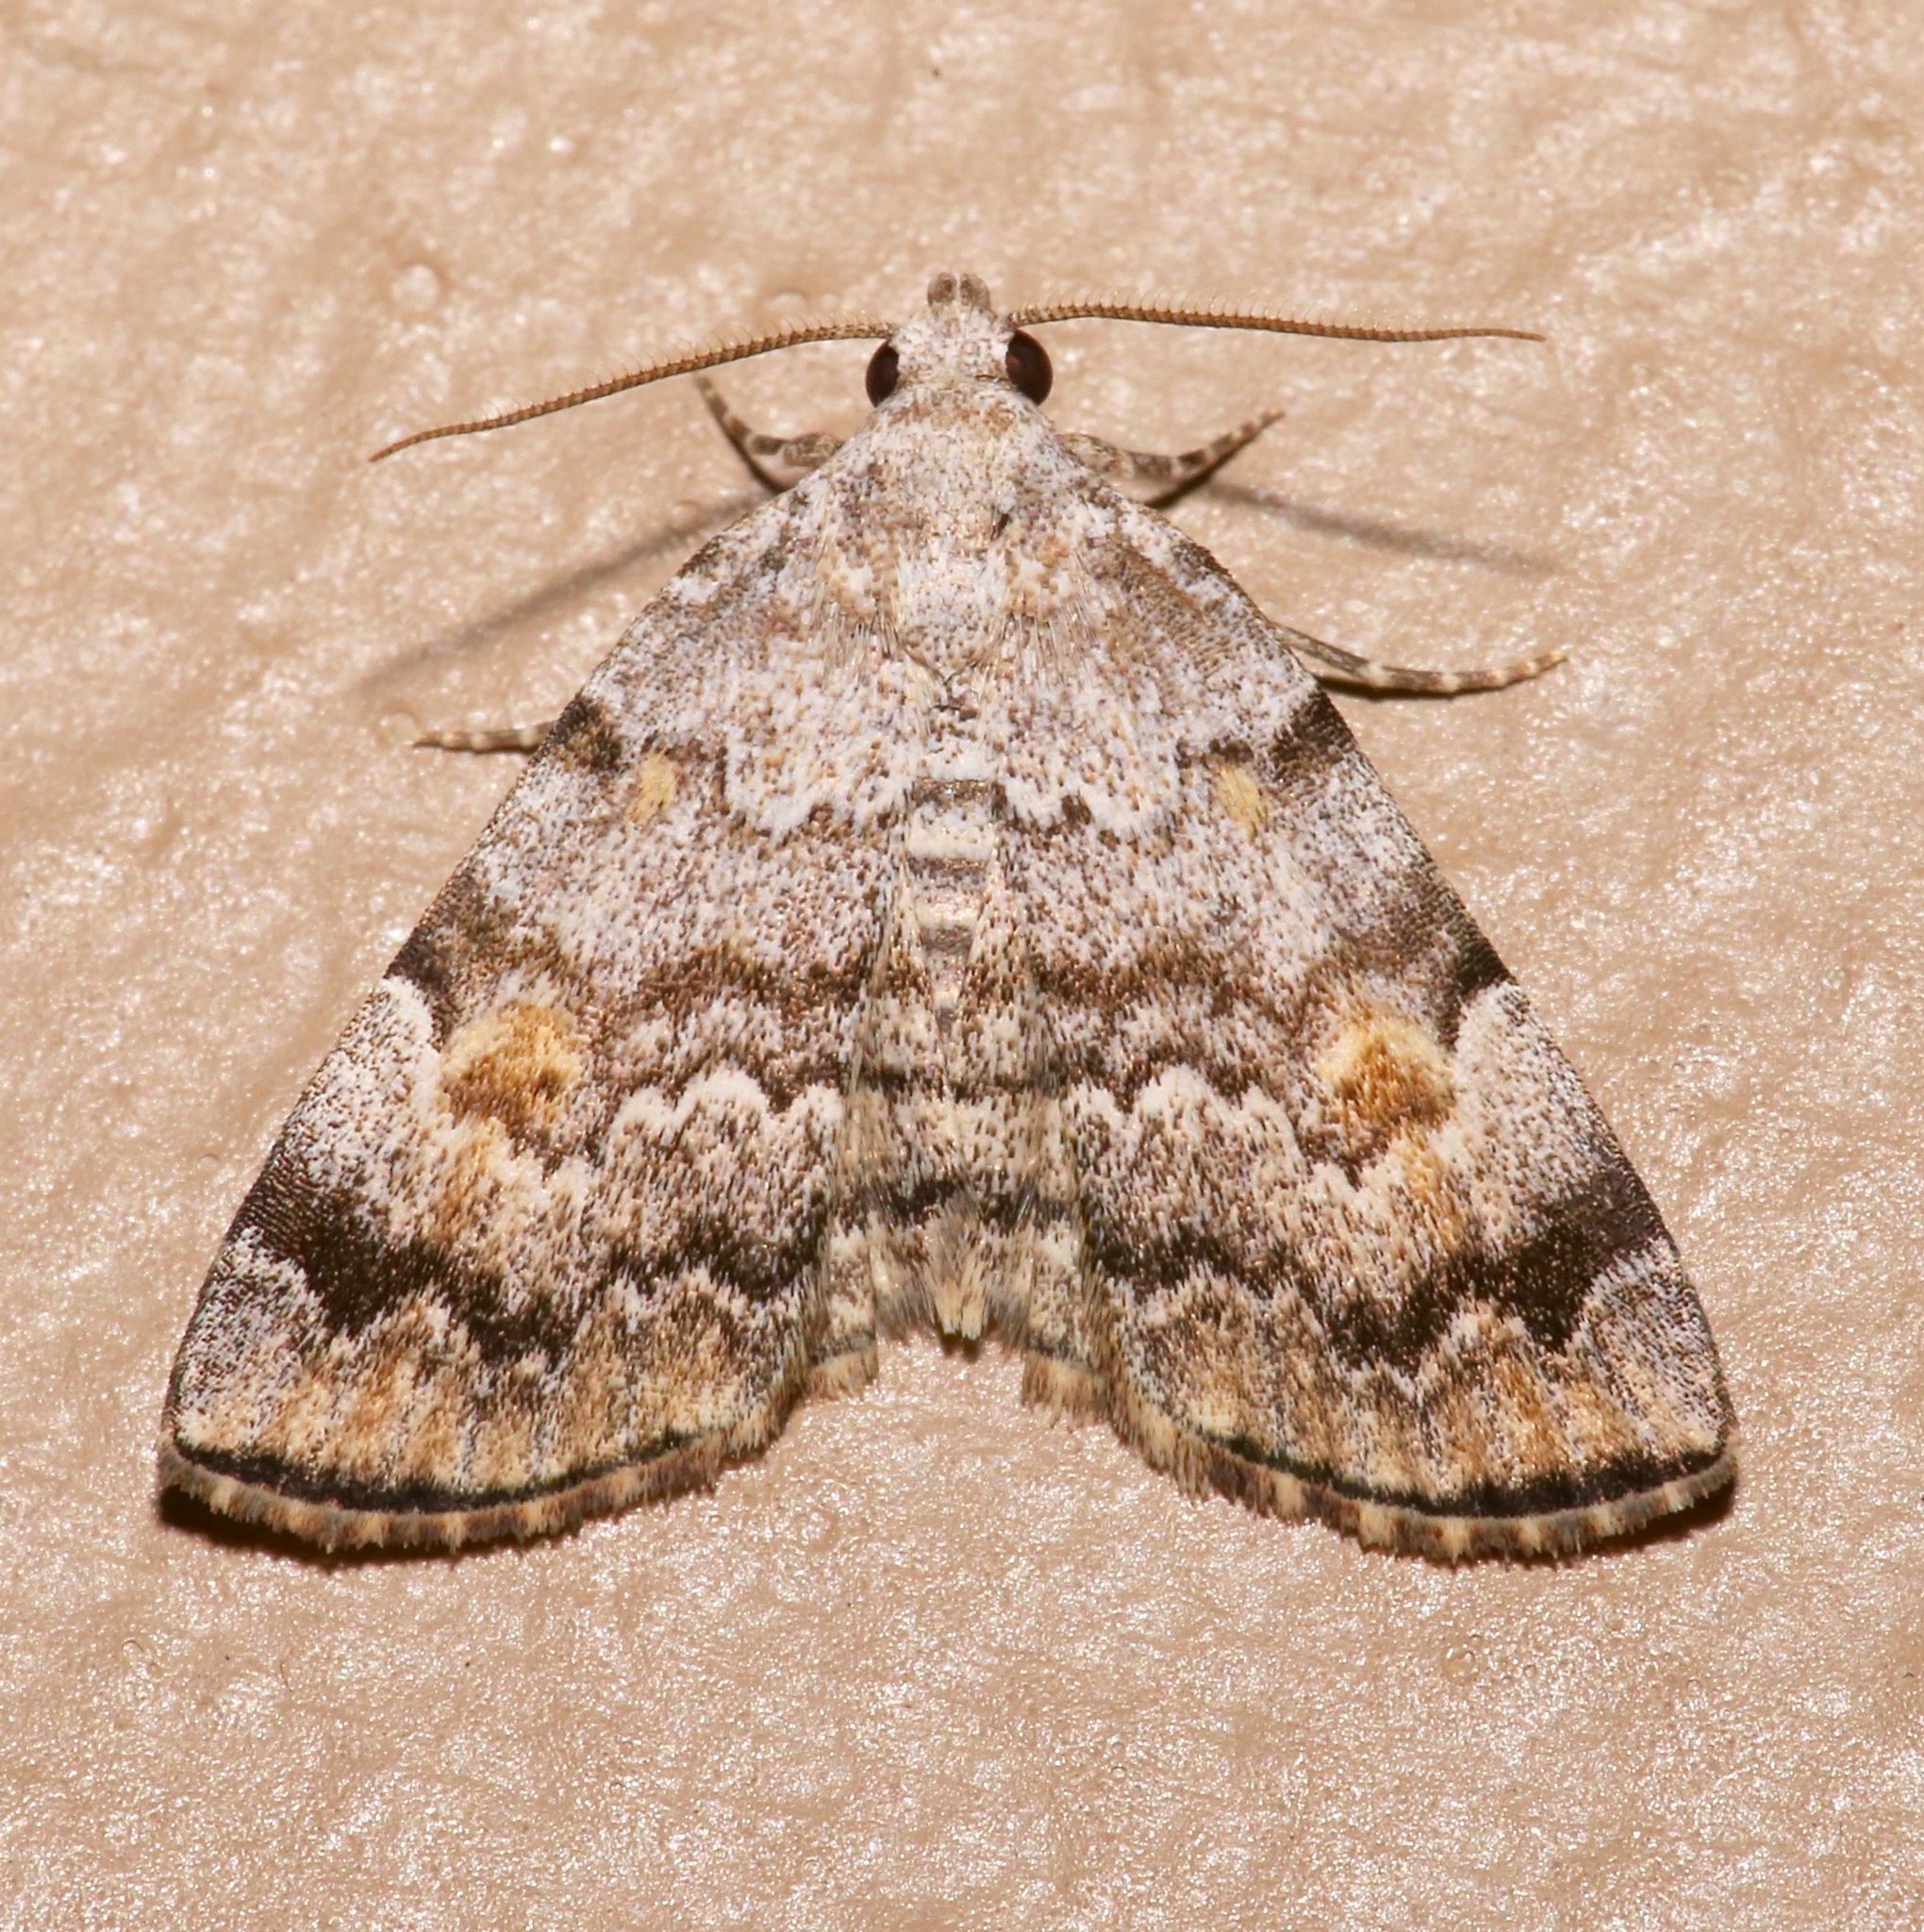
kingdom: Animalia
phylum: Arthropoda
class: Insecta
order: Lepidoptera
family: Erebidae
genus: Idia
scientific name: Idia americalis
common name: American idia moth
